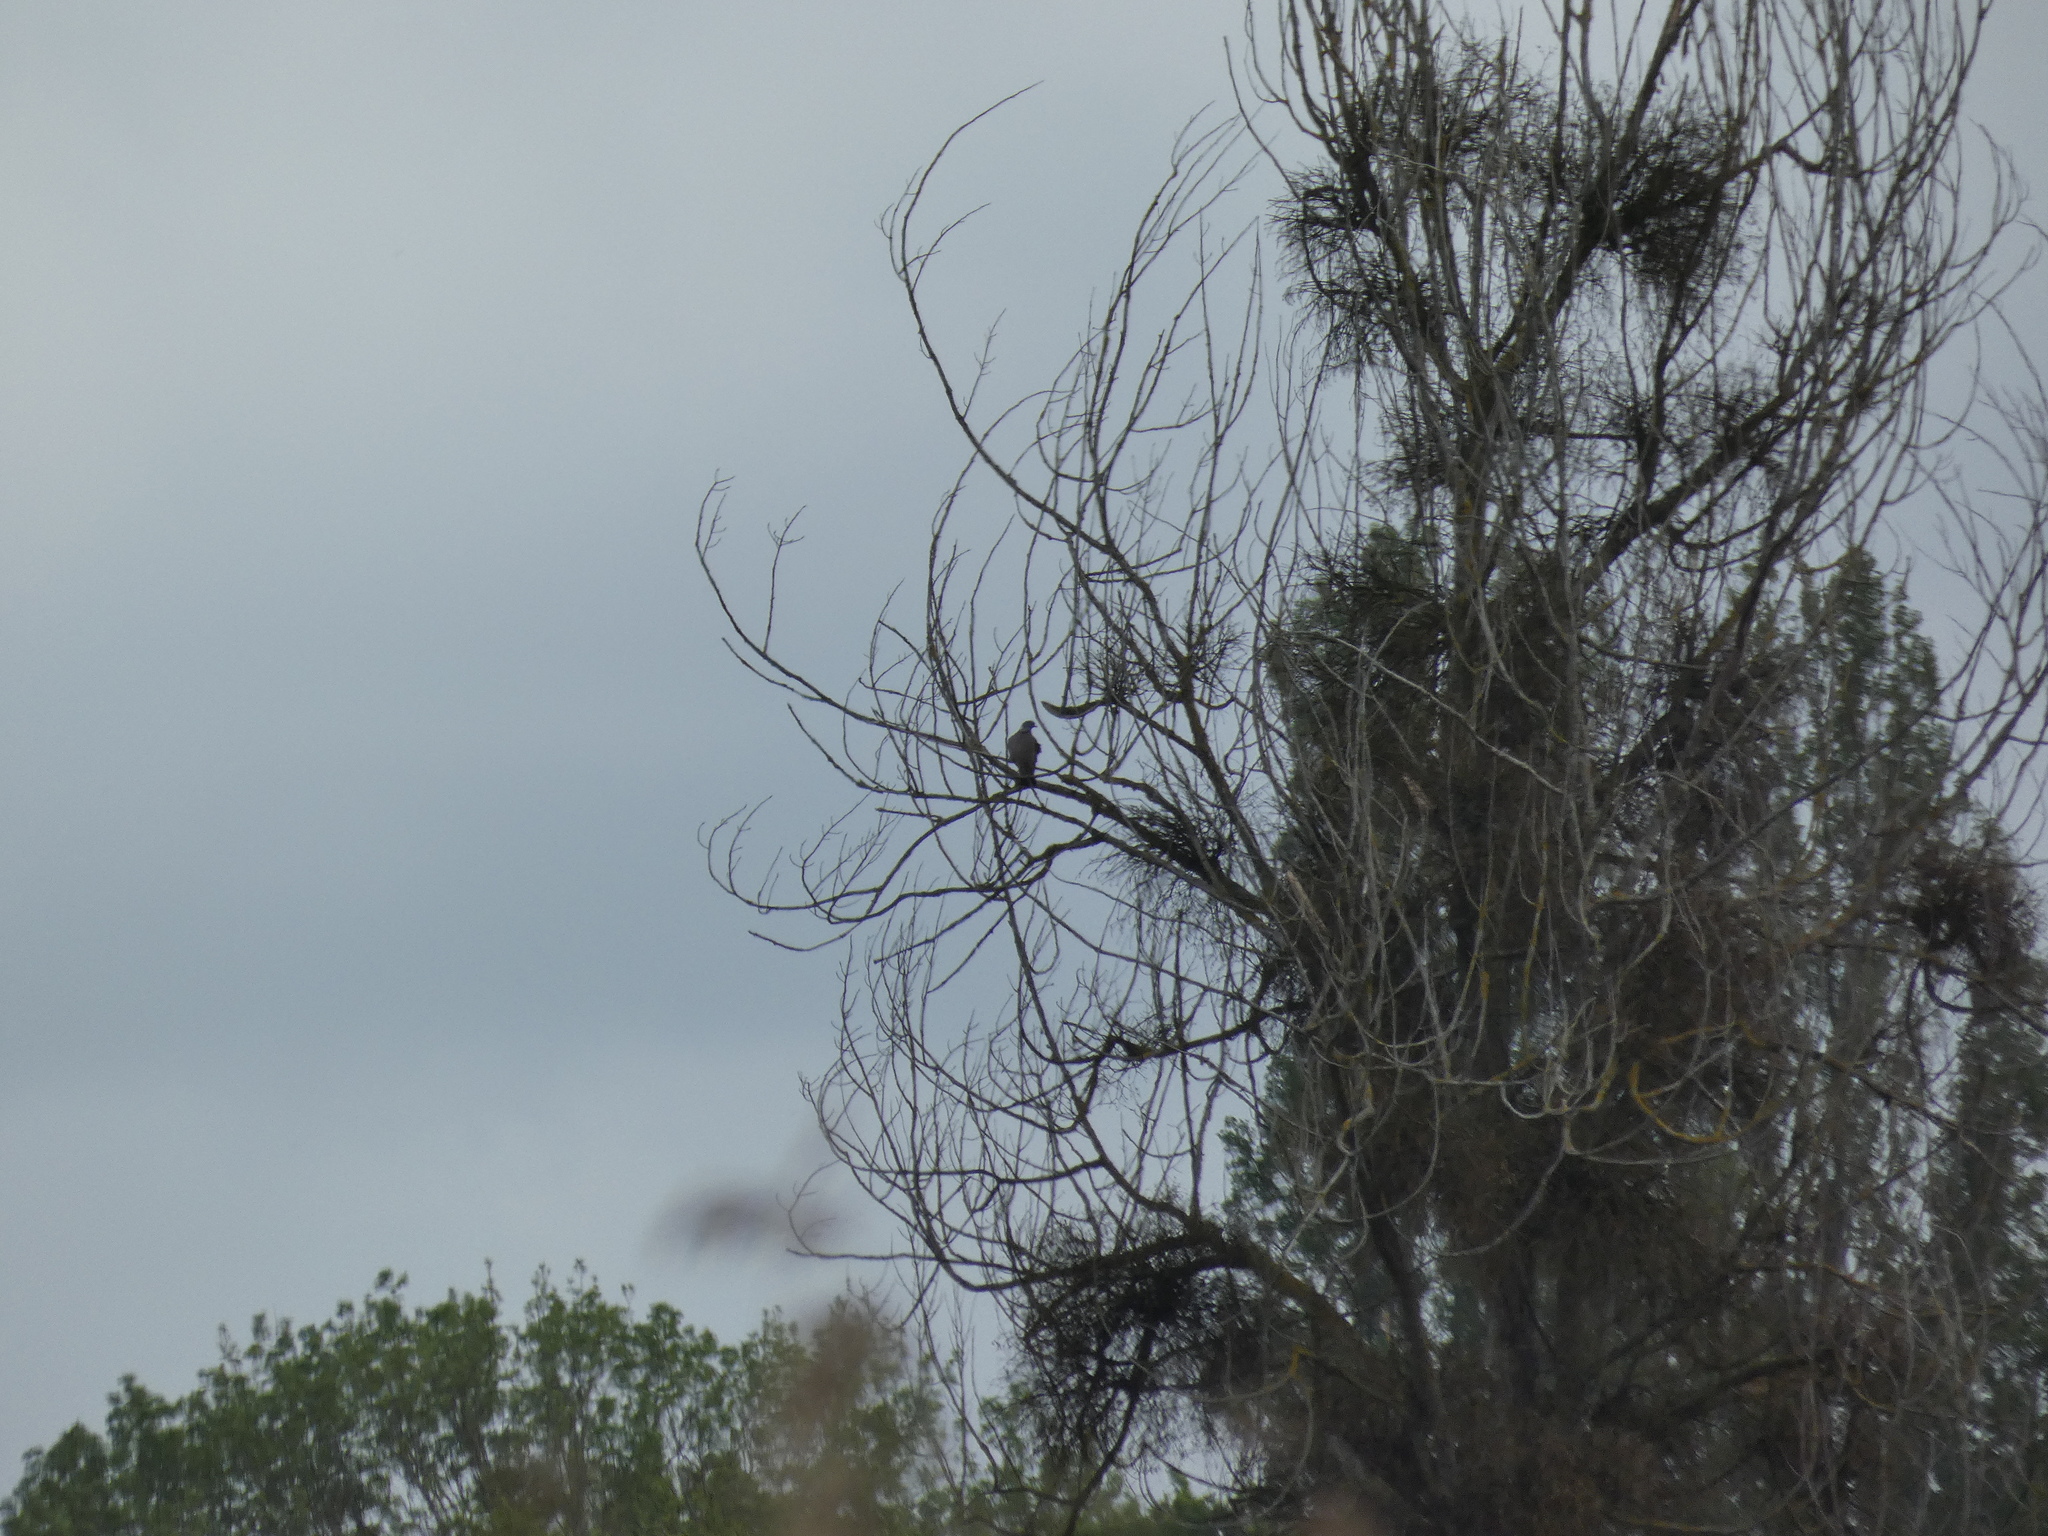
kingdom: Animalia
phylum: Chordata
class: Aves
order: Columbiformes
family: Columbidae
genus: Columba
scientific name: Columba palumbus
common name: Common wood pigeon
